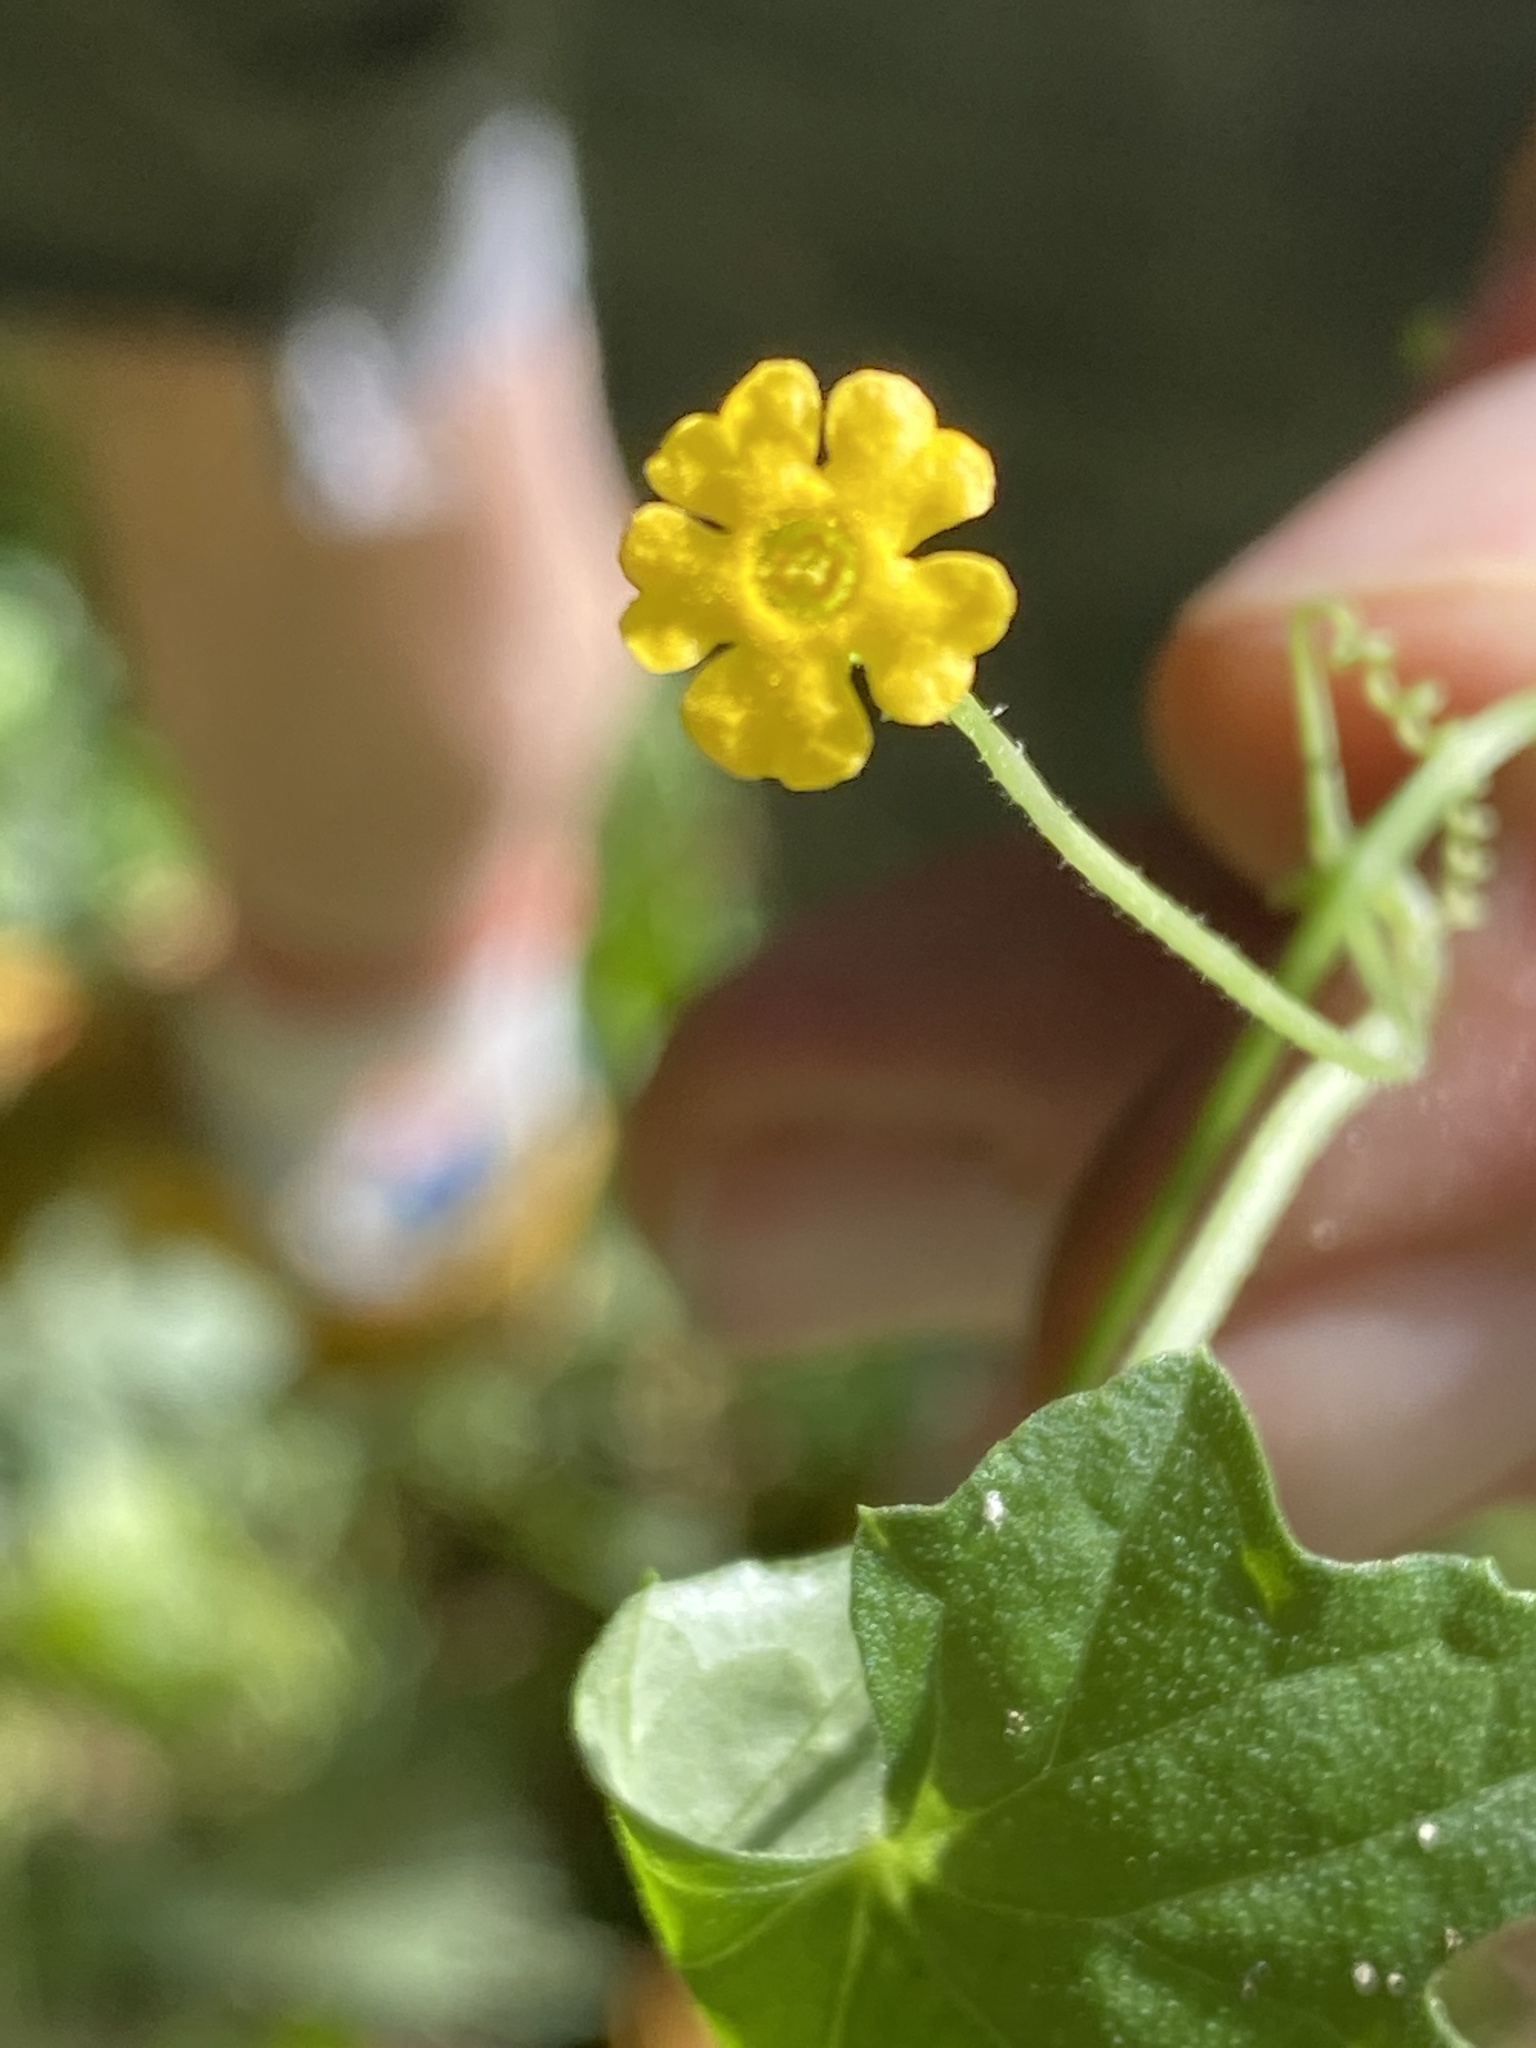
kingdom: Plantae
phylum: Tracheophyta
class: Magnoliopsida
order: Cucurbitales
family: Cucurbitaceae
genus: Melothria
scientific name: Melothria pendula
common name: Creeping-cucumber
